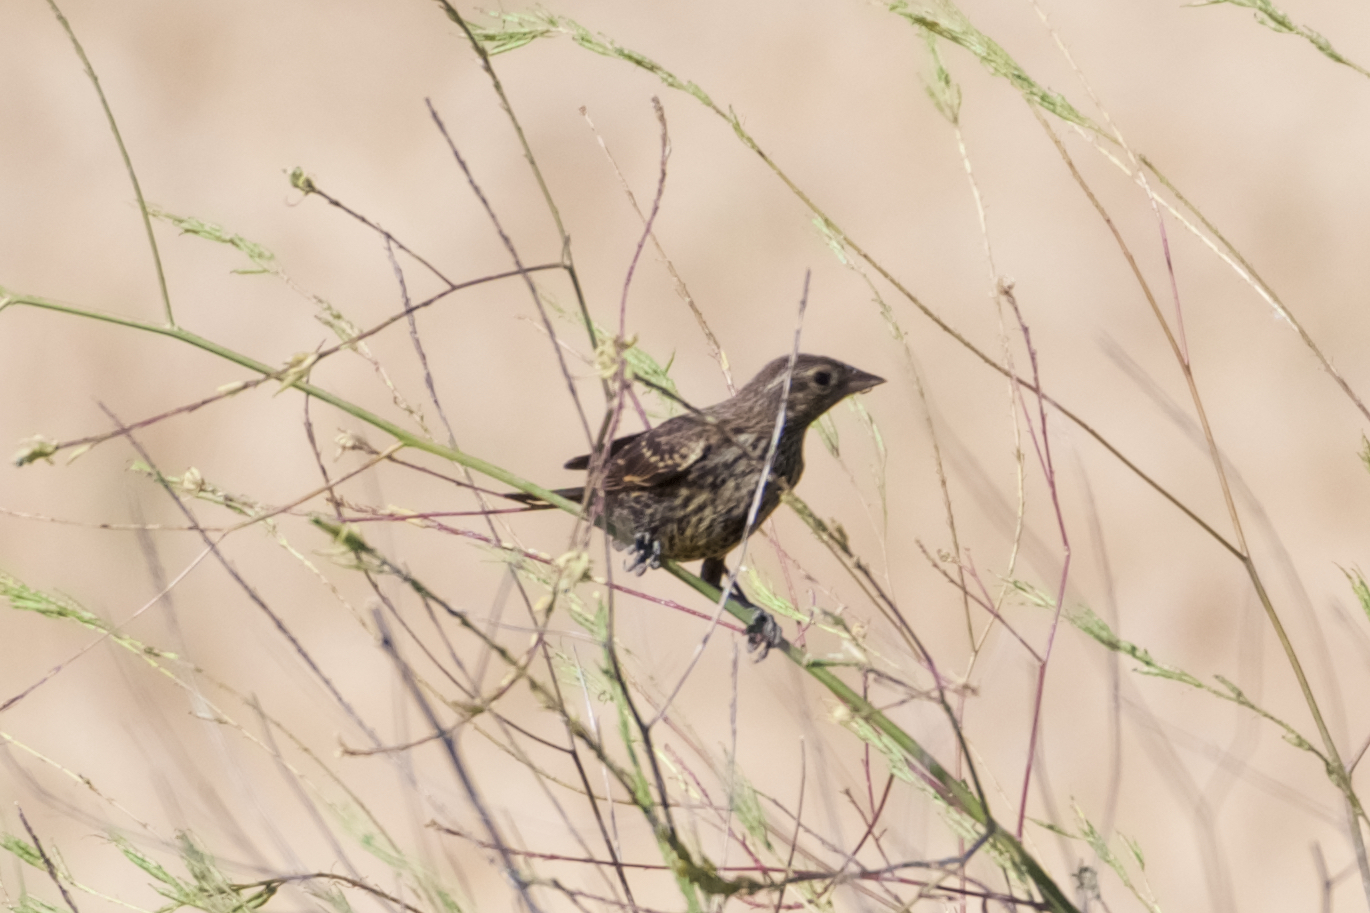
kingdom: Animalia
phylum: Chordata
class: Aves
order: Passeriformes
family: Icteridae
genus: Agelaius
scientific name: Agelaius phoeniceus
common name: Red-winged blackbird
